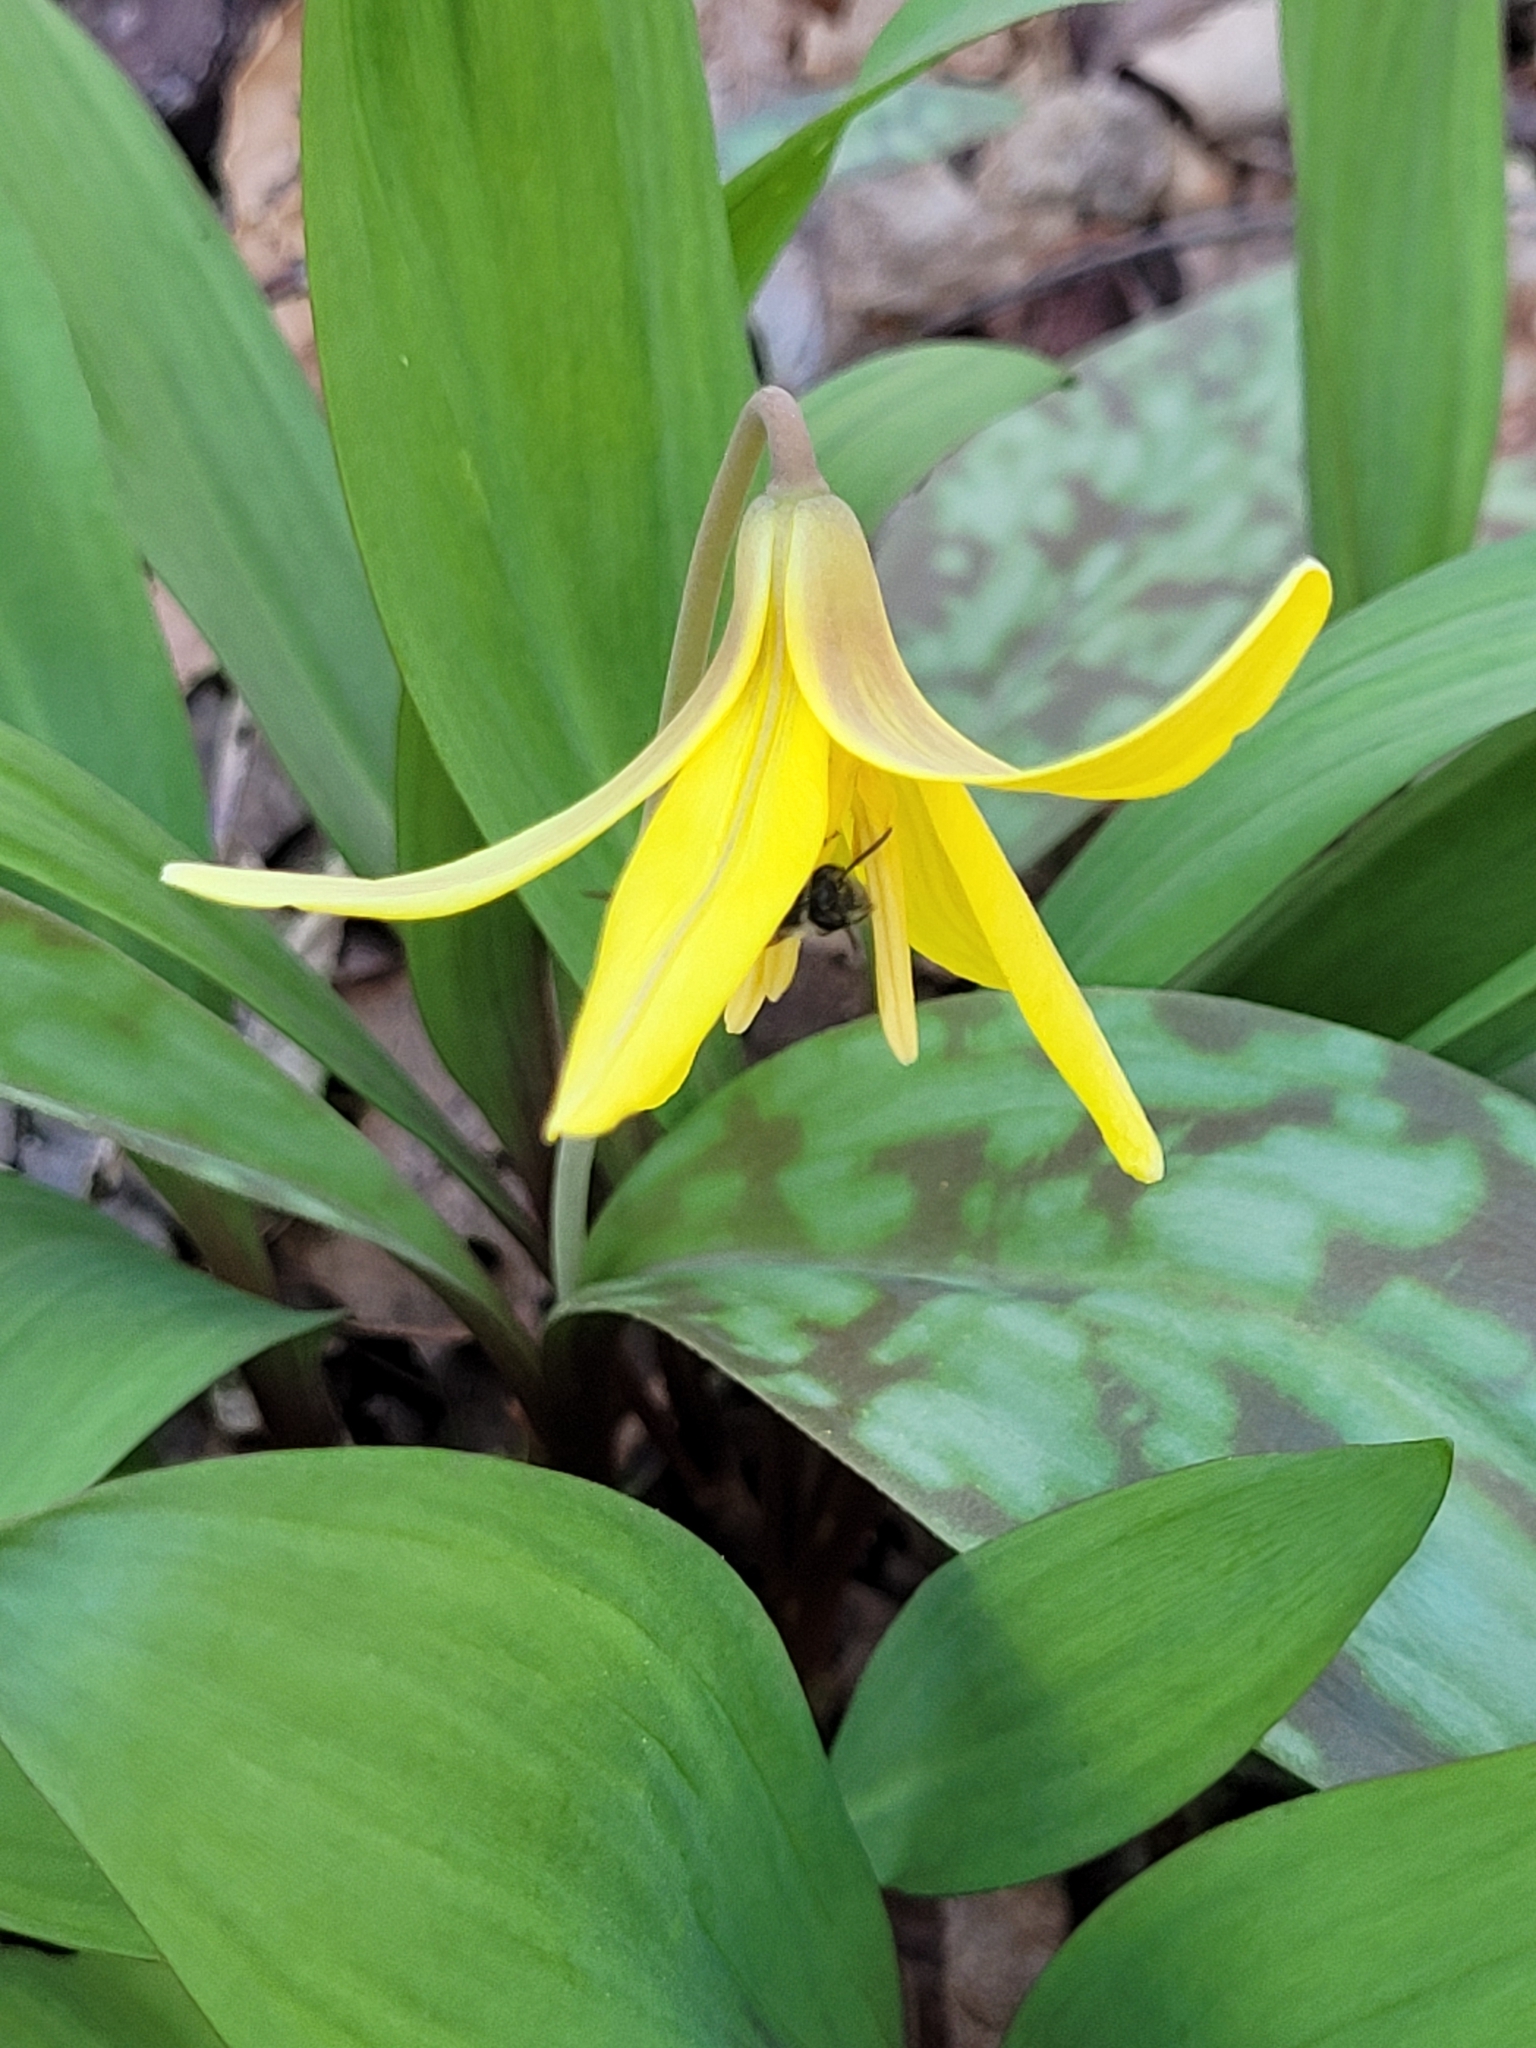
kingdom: Plantae
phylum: Tracheophyta
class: Liliopsida
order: Liliales
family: Liliaceae
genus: Erythronium
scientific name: Erythronium americanum
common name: Yellow adder's-tongue
